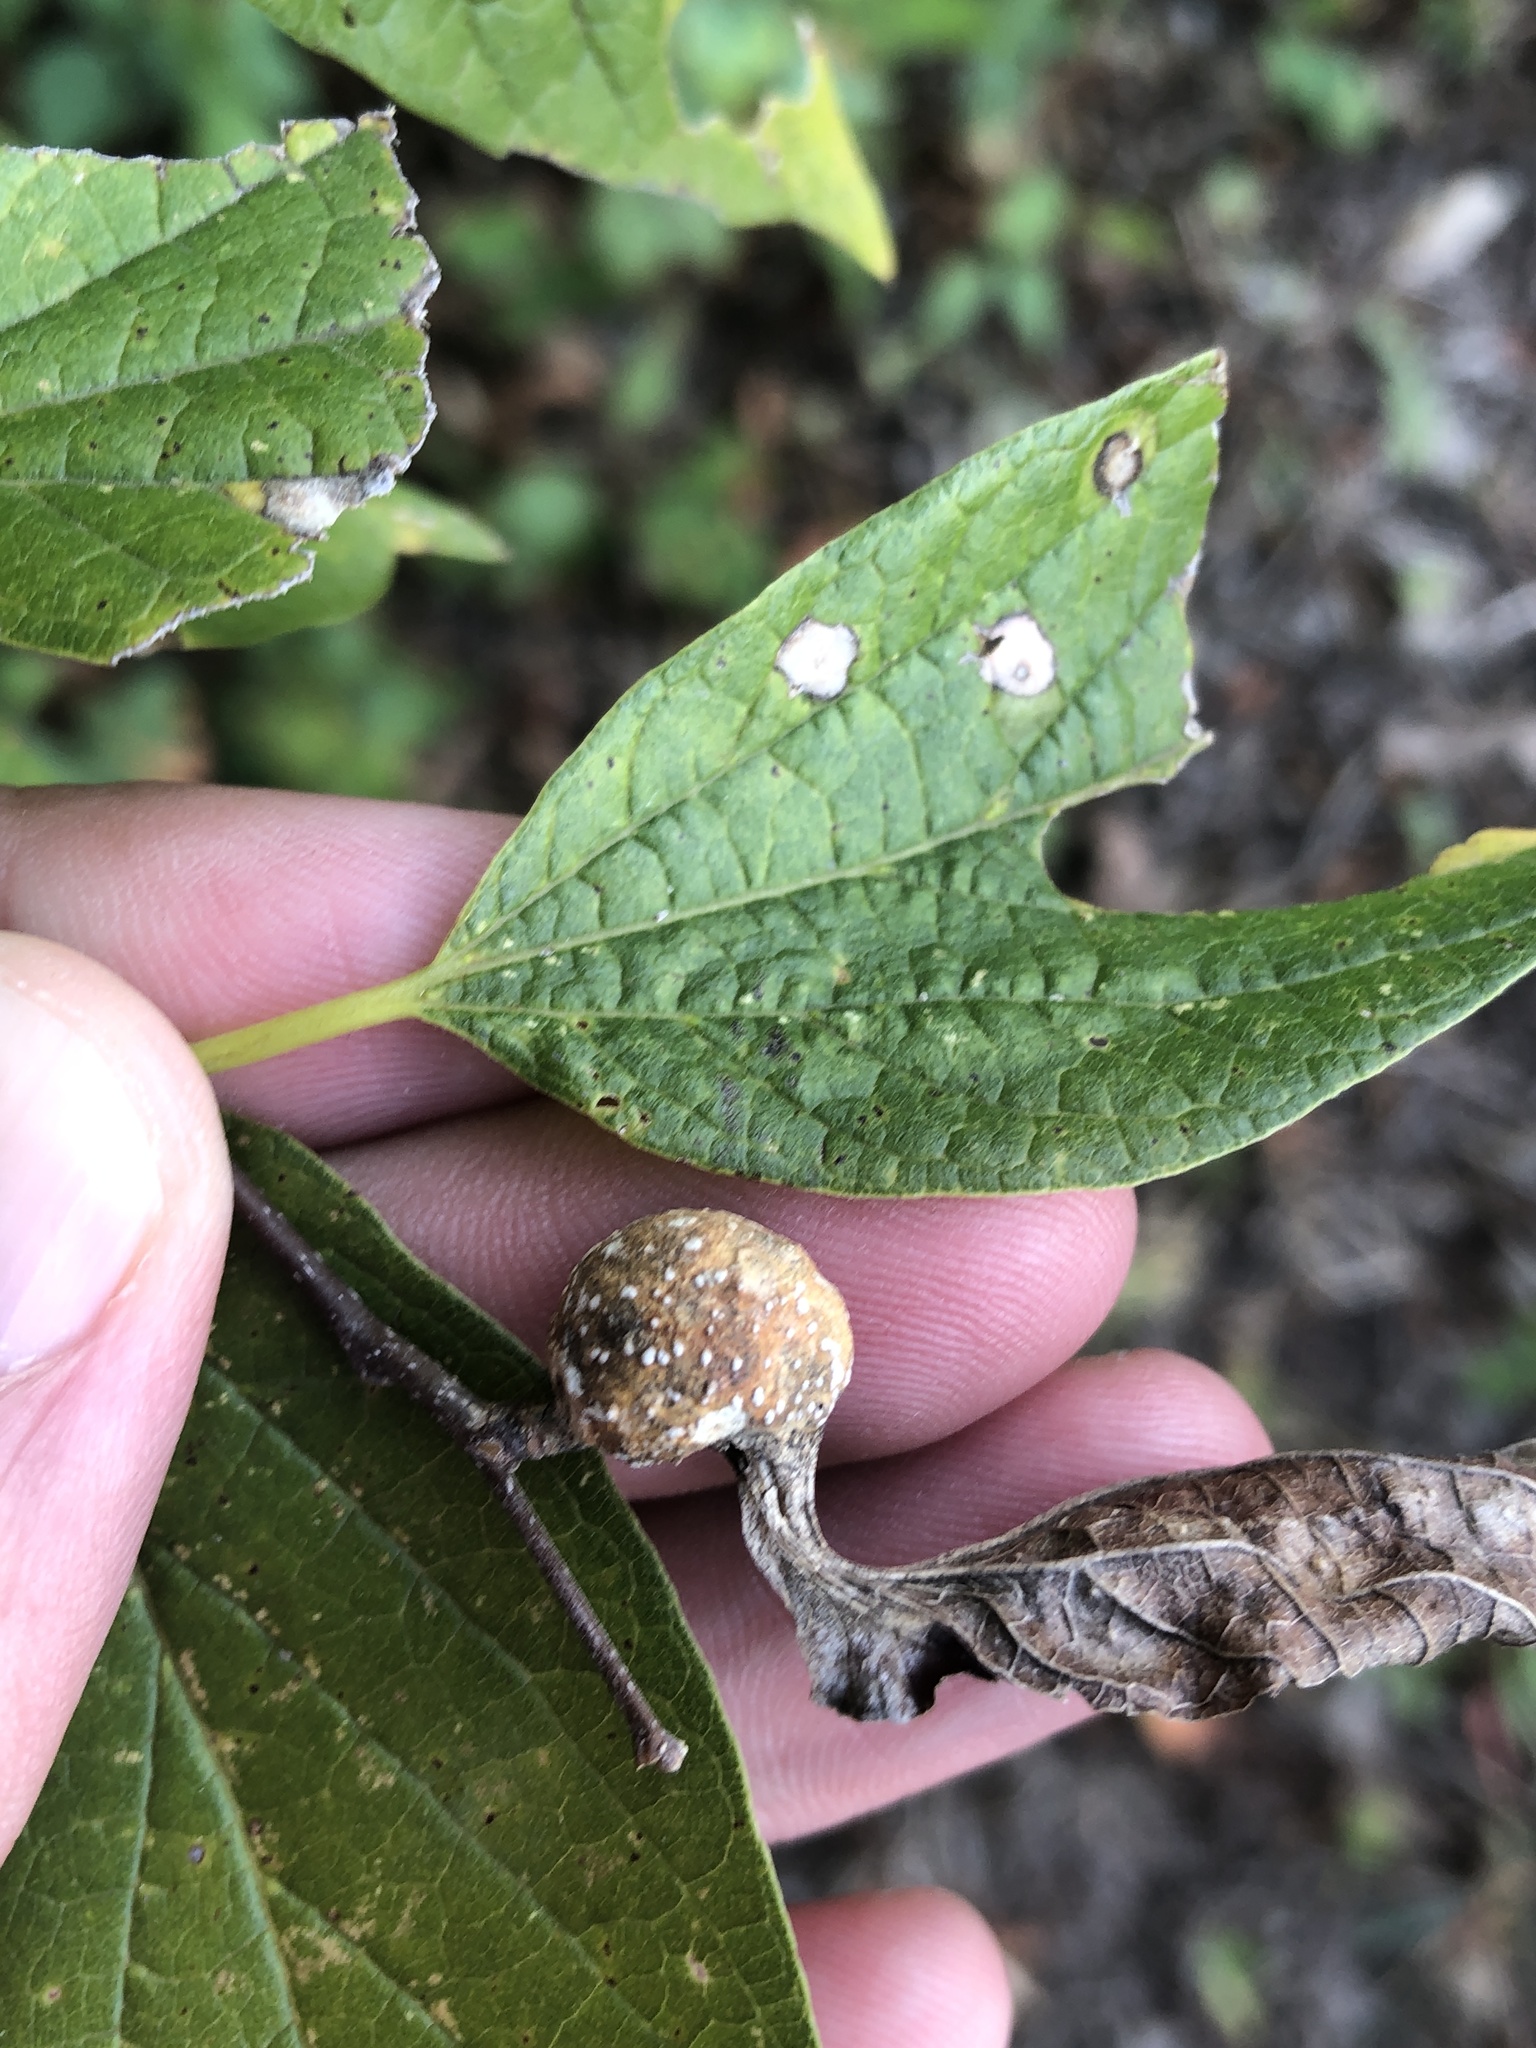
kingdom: Animalia
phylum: Arthropoda
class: Insecta
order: Hemiptera
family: Aphalaridae
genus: Pachypsylla
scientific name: Pachypsylla venusta
